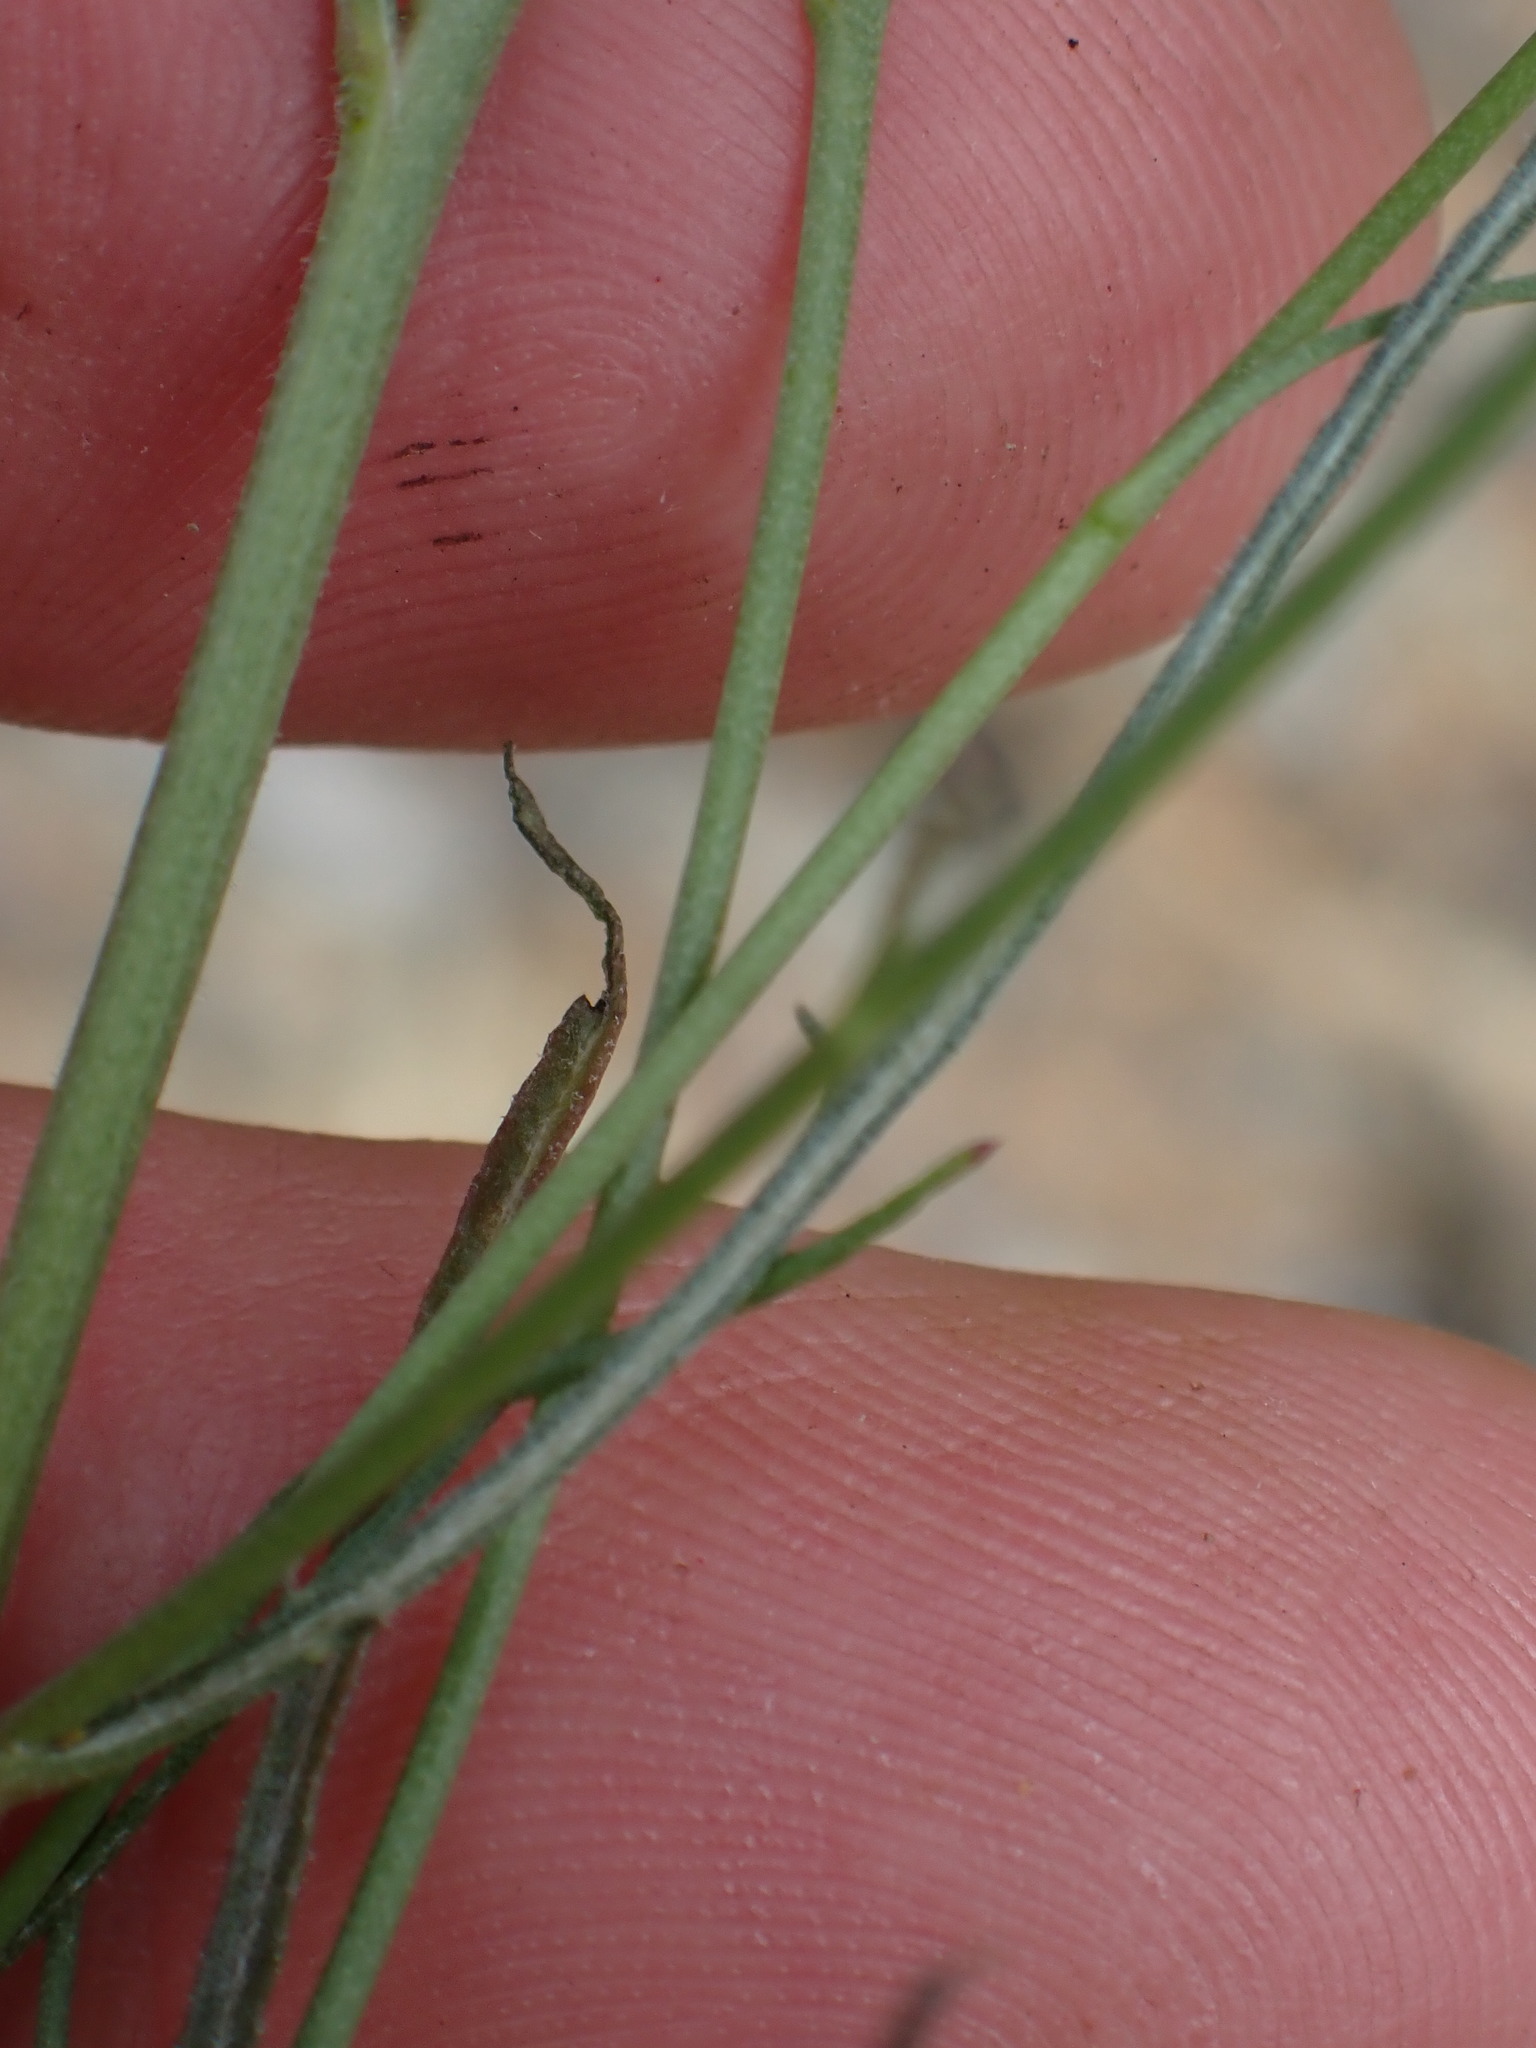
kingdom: Plantae
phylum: Tracheophyta
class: Magnoliopsida
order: Asterales
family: Asteraceae
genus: Stephanomeria
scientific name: Stephanomeria tenuifolia
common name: Slender wirelettuce
